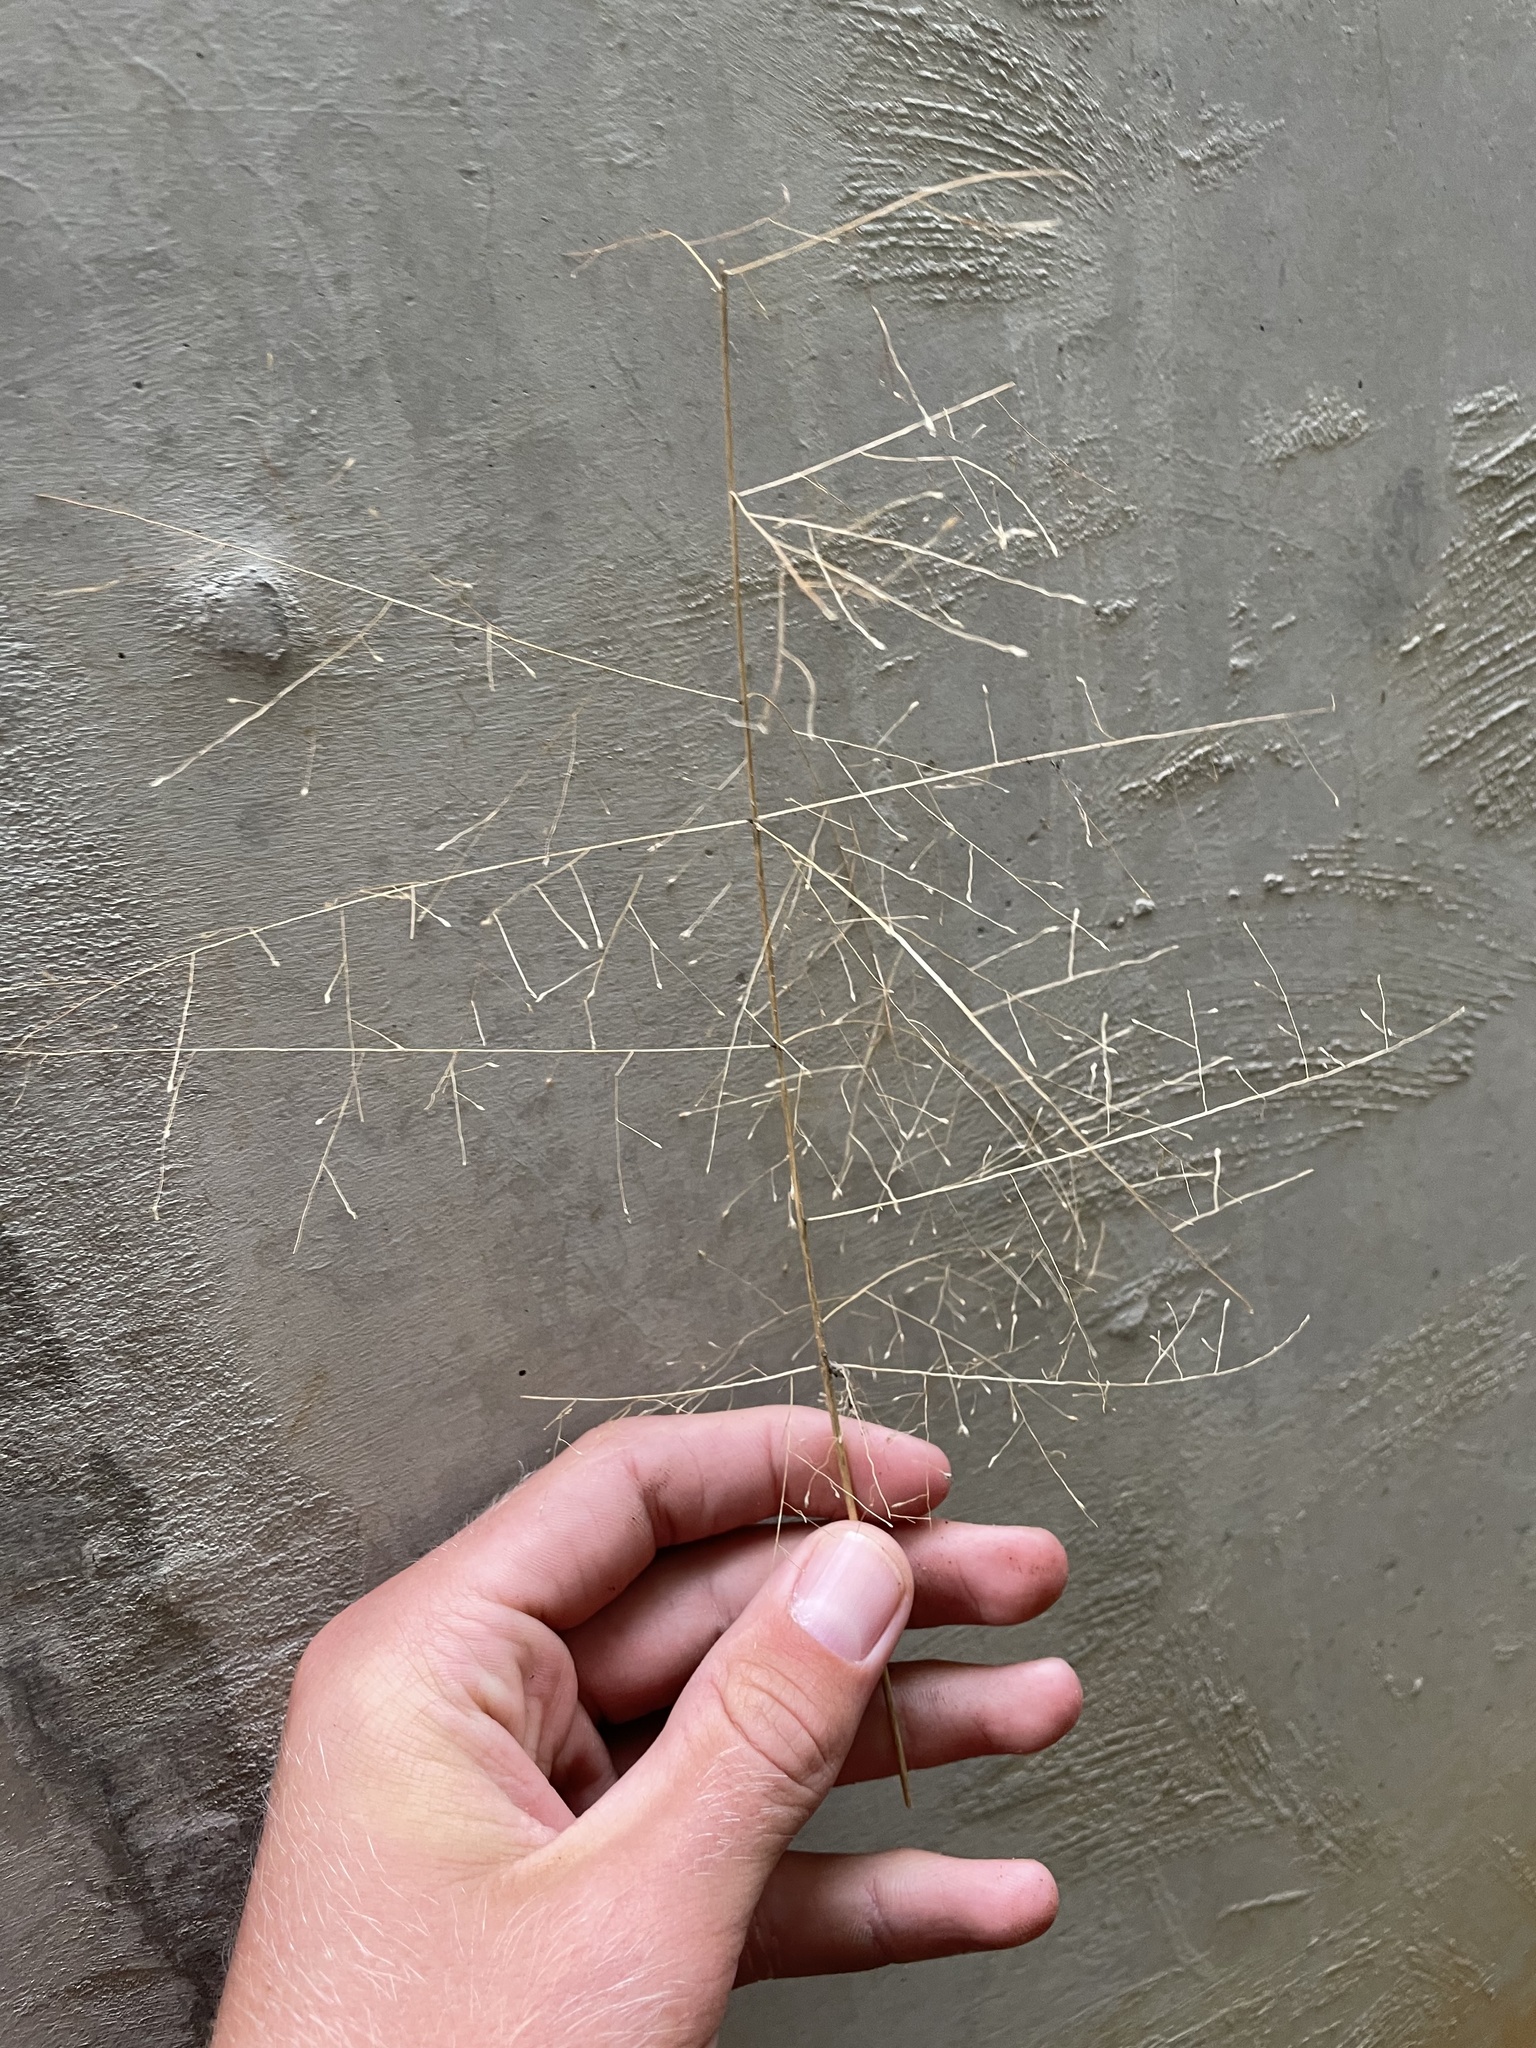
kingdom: Plantae
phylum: Tracheophyta
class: Liliopsida
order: Poales
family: Poaceae
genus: Panicum
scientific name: Panicum capillare
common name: Witch-grass
